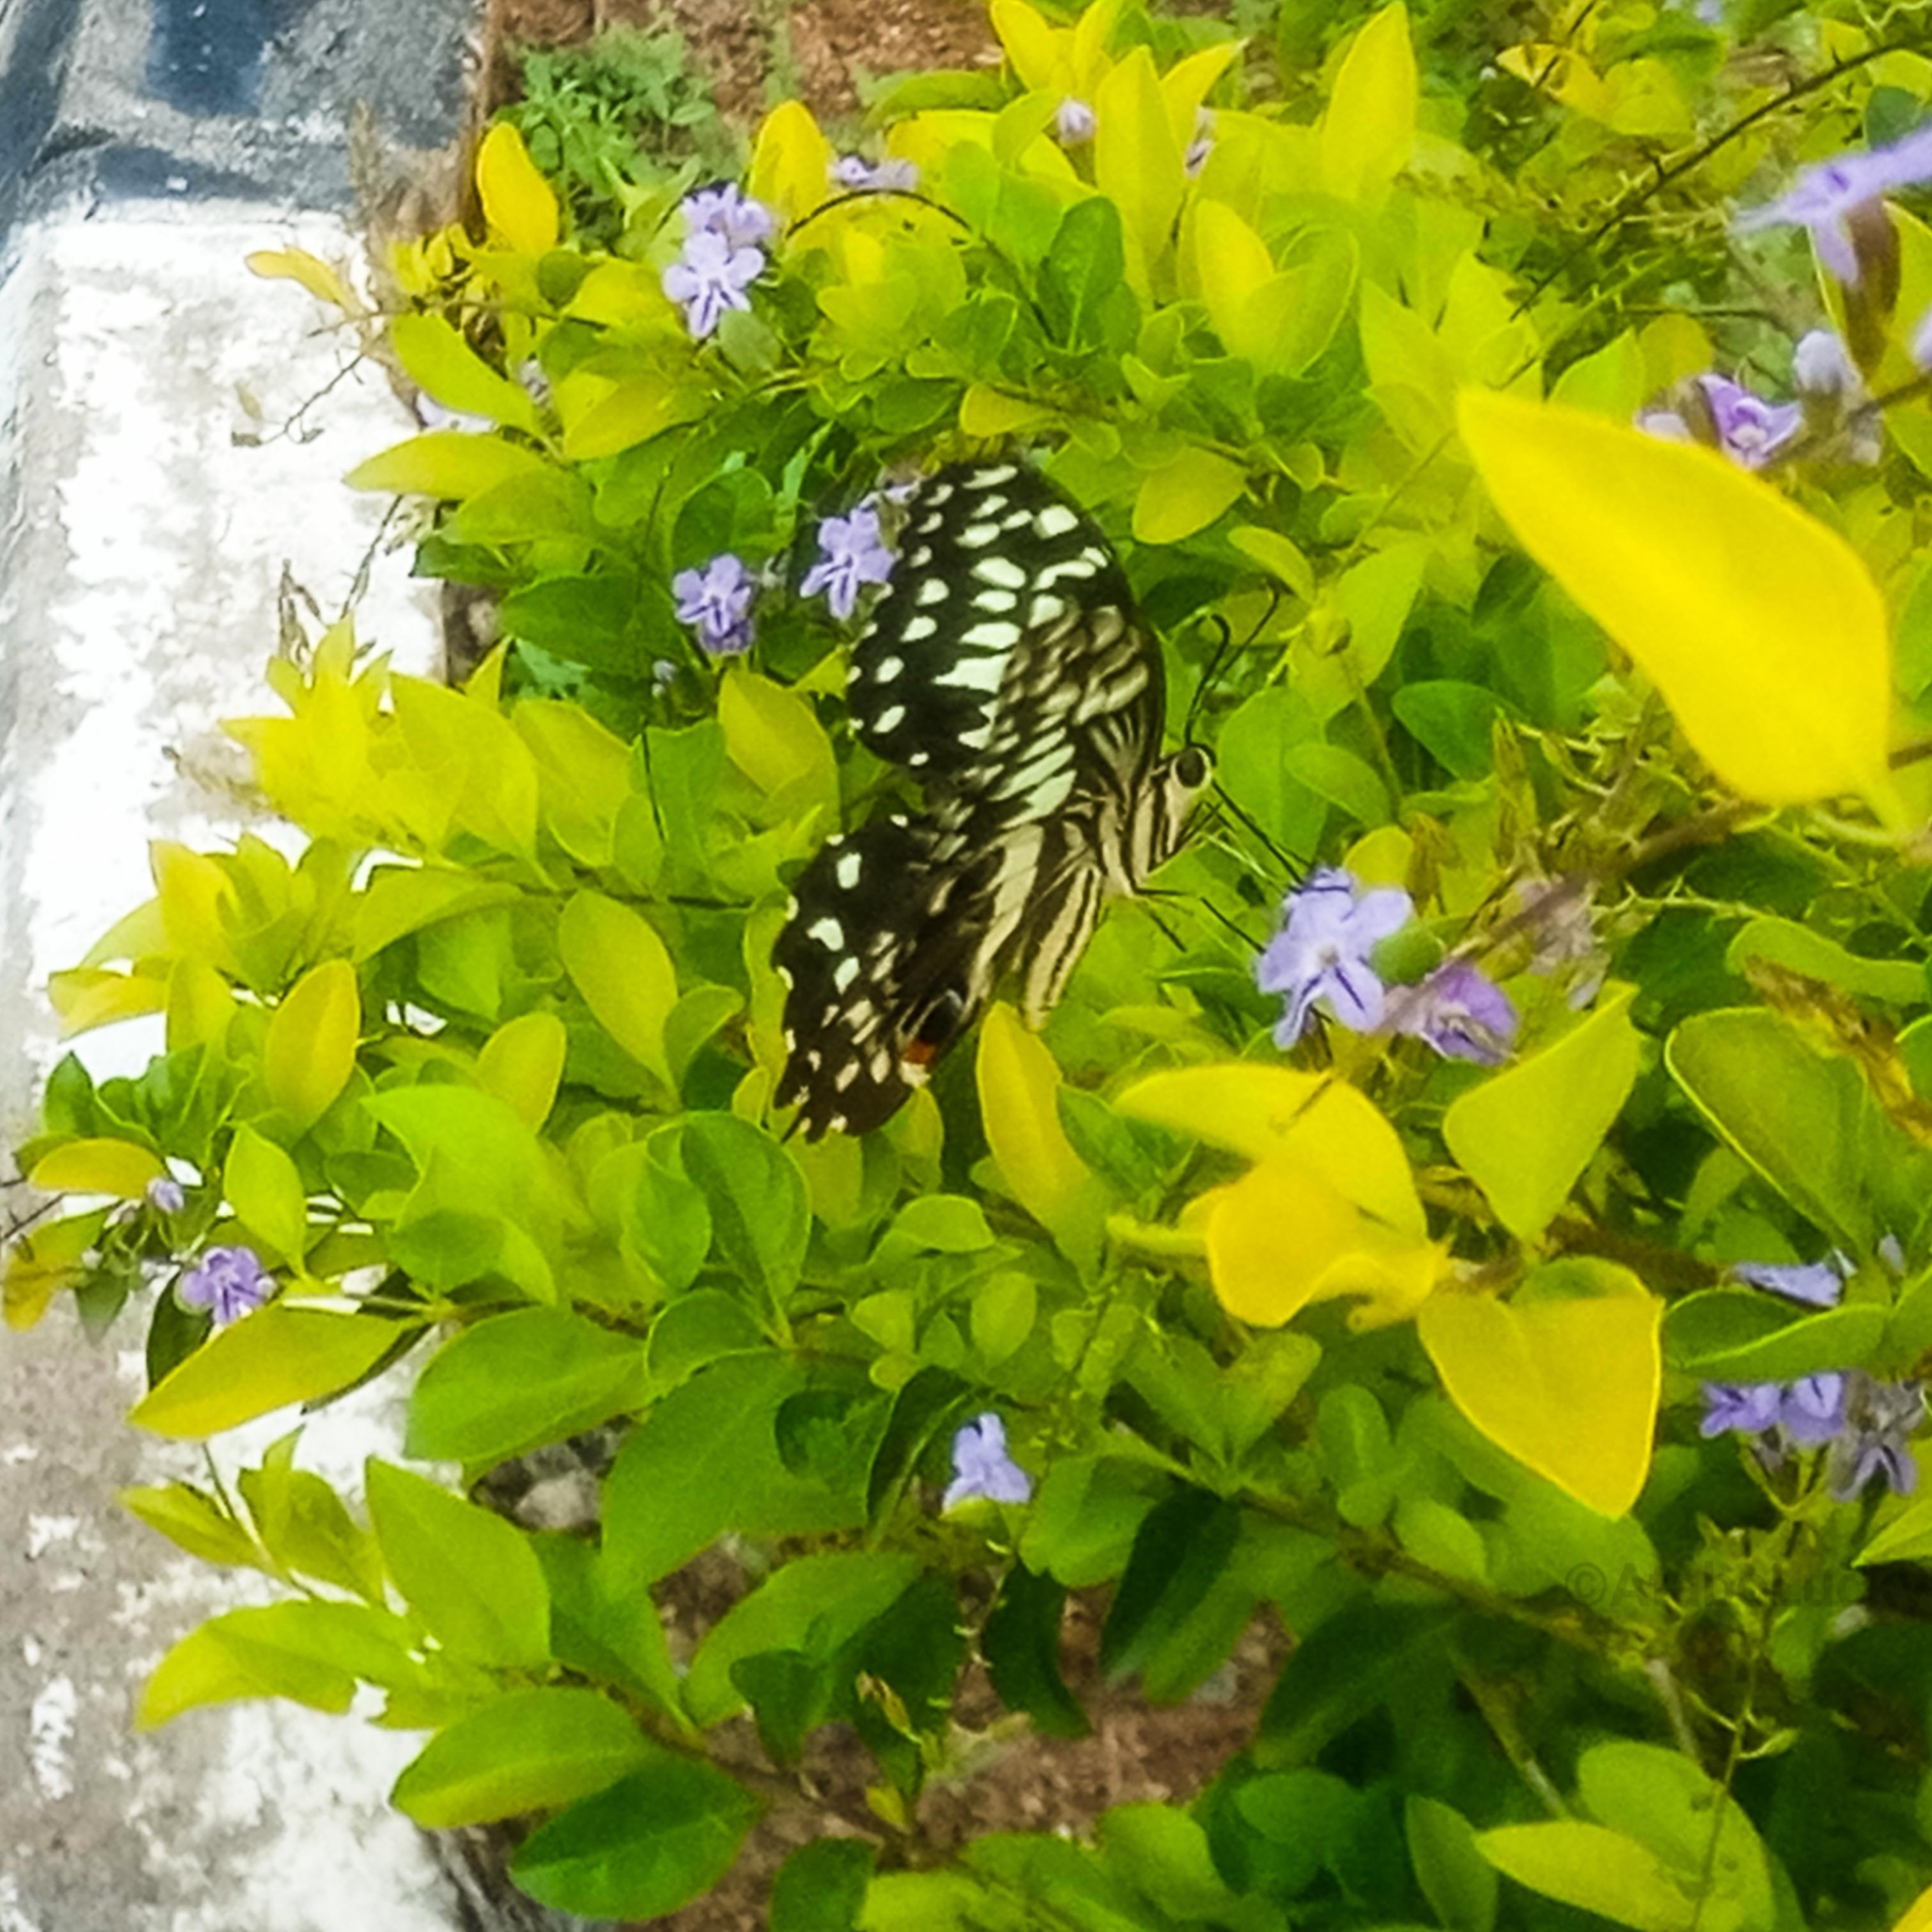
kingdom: Animalia
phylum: Arthropoda
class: Insecta
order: Lepidoptera
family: Papilionidae
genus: Papilio
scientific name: Papilio demodocus
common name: Christmas butterfly
